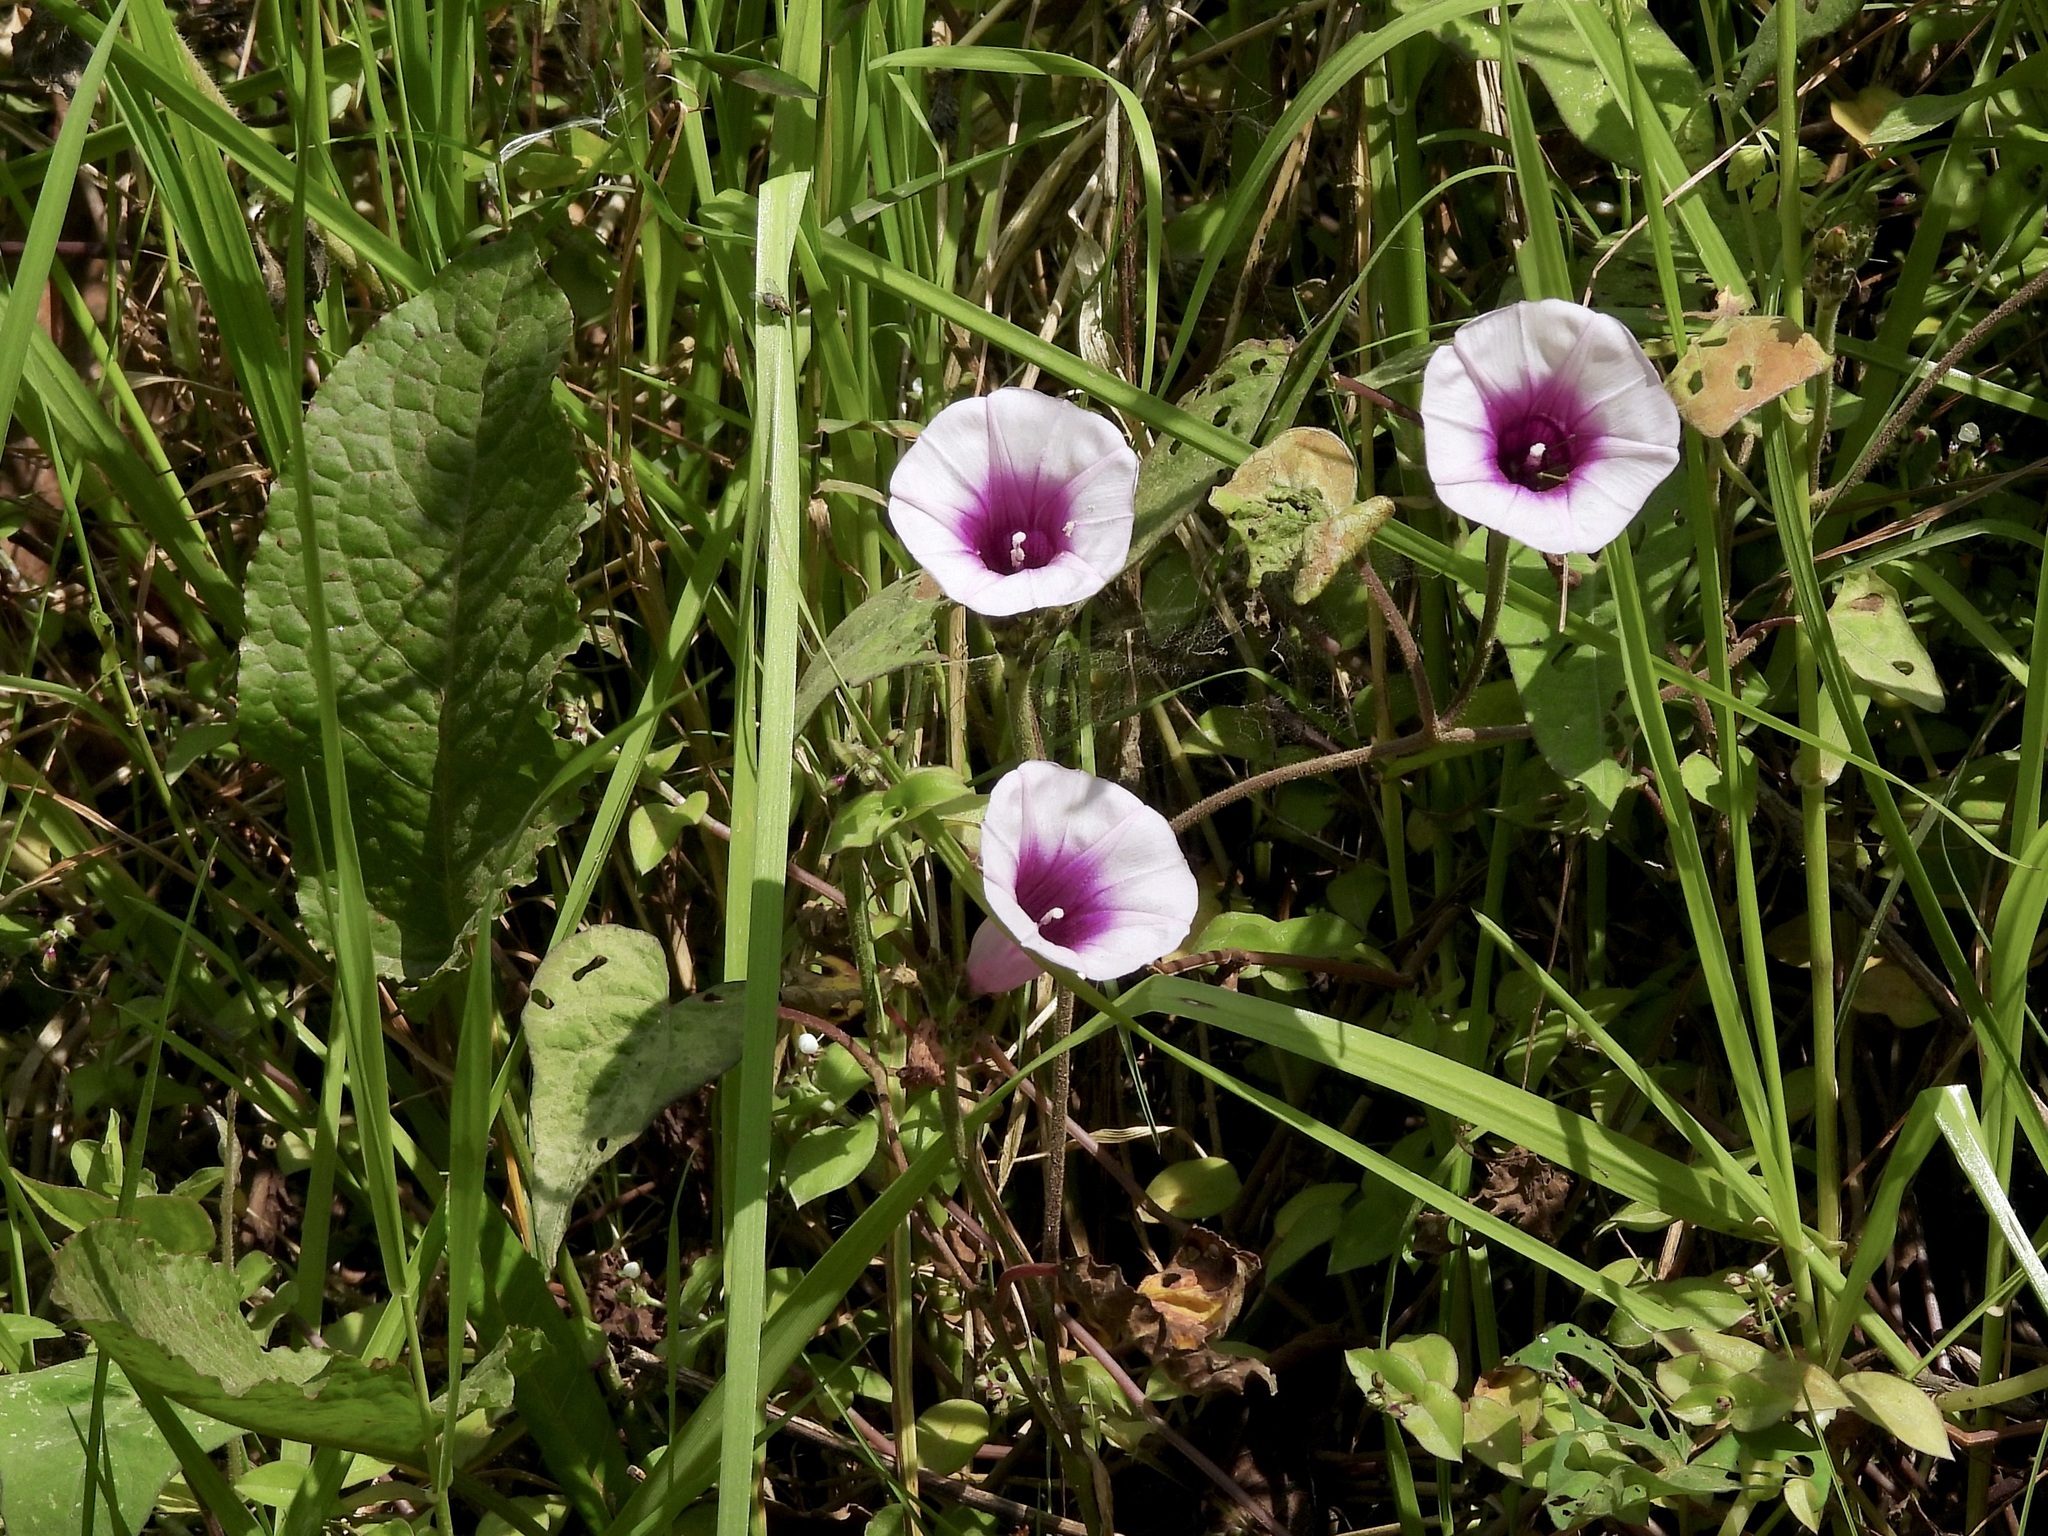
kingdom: Plantae
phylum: Tracheophyta
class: Magnoliopsida
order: Solanales
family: Convolvulaceae
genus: Ipomoea
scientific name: Ipomoea batatas
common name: Sweet-potato
